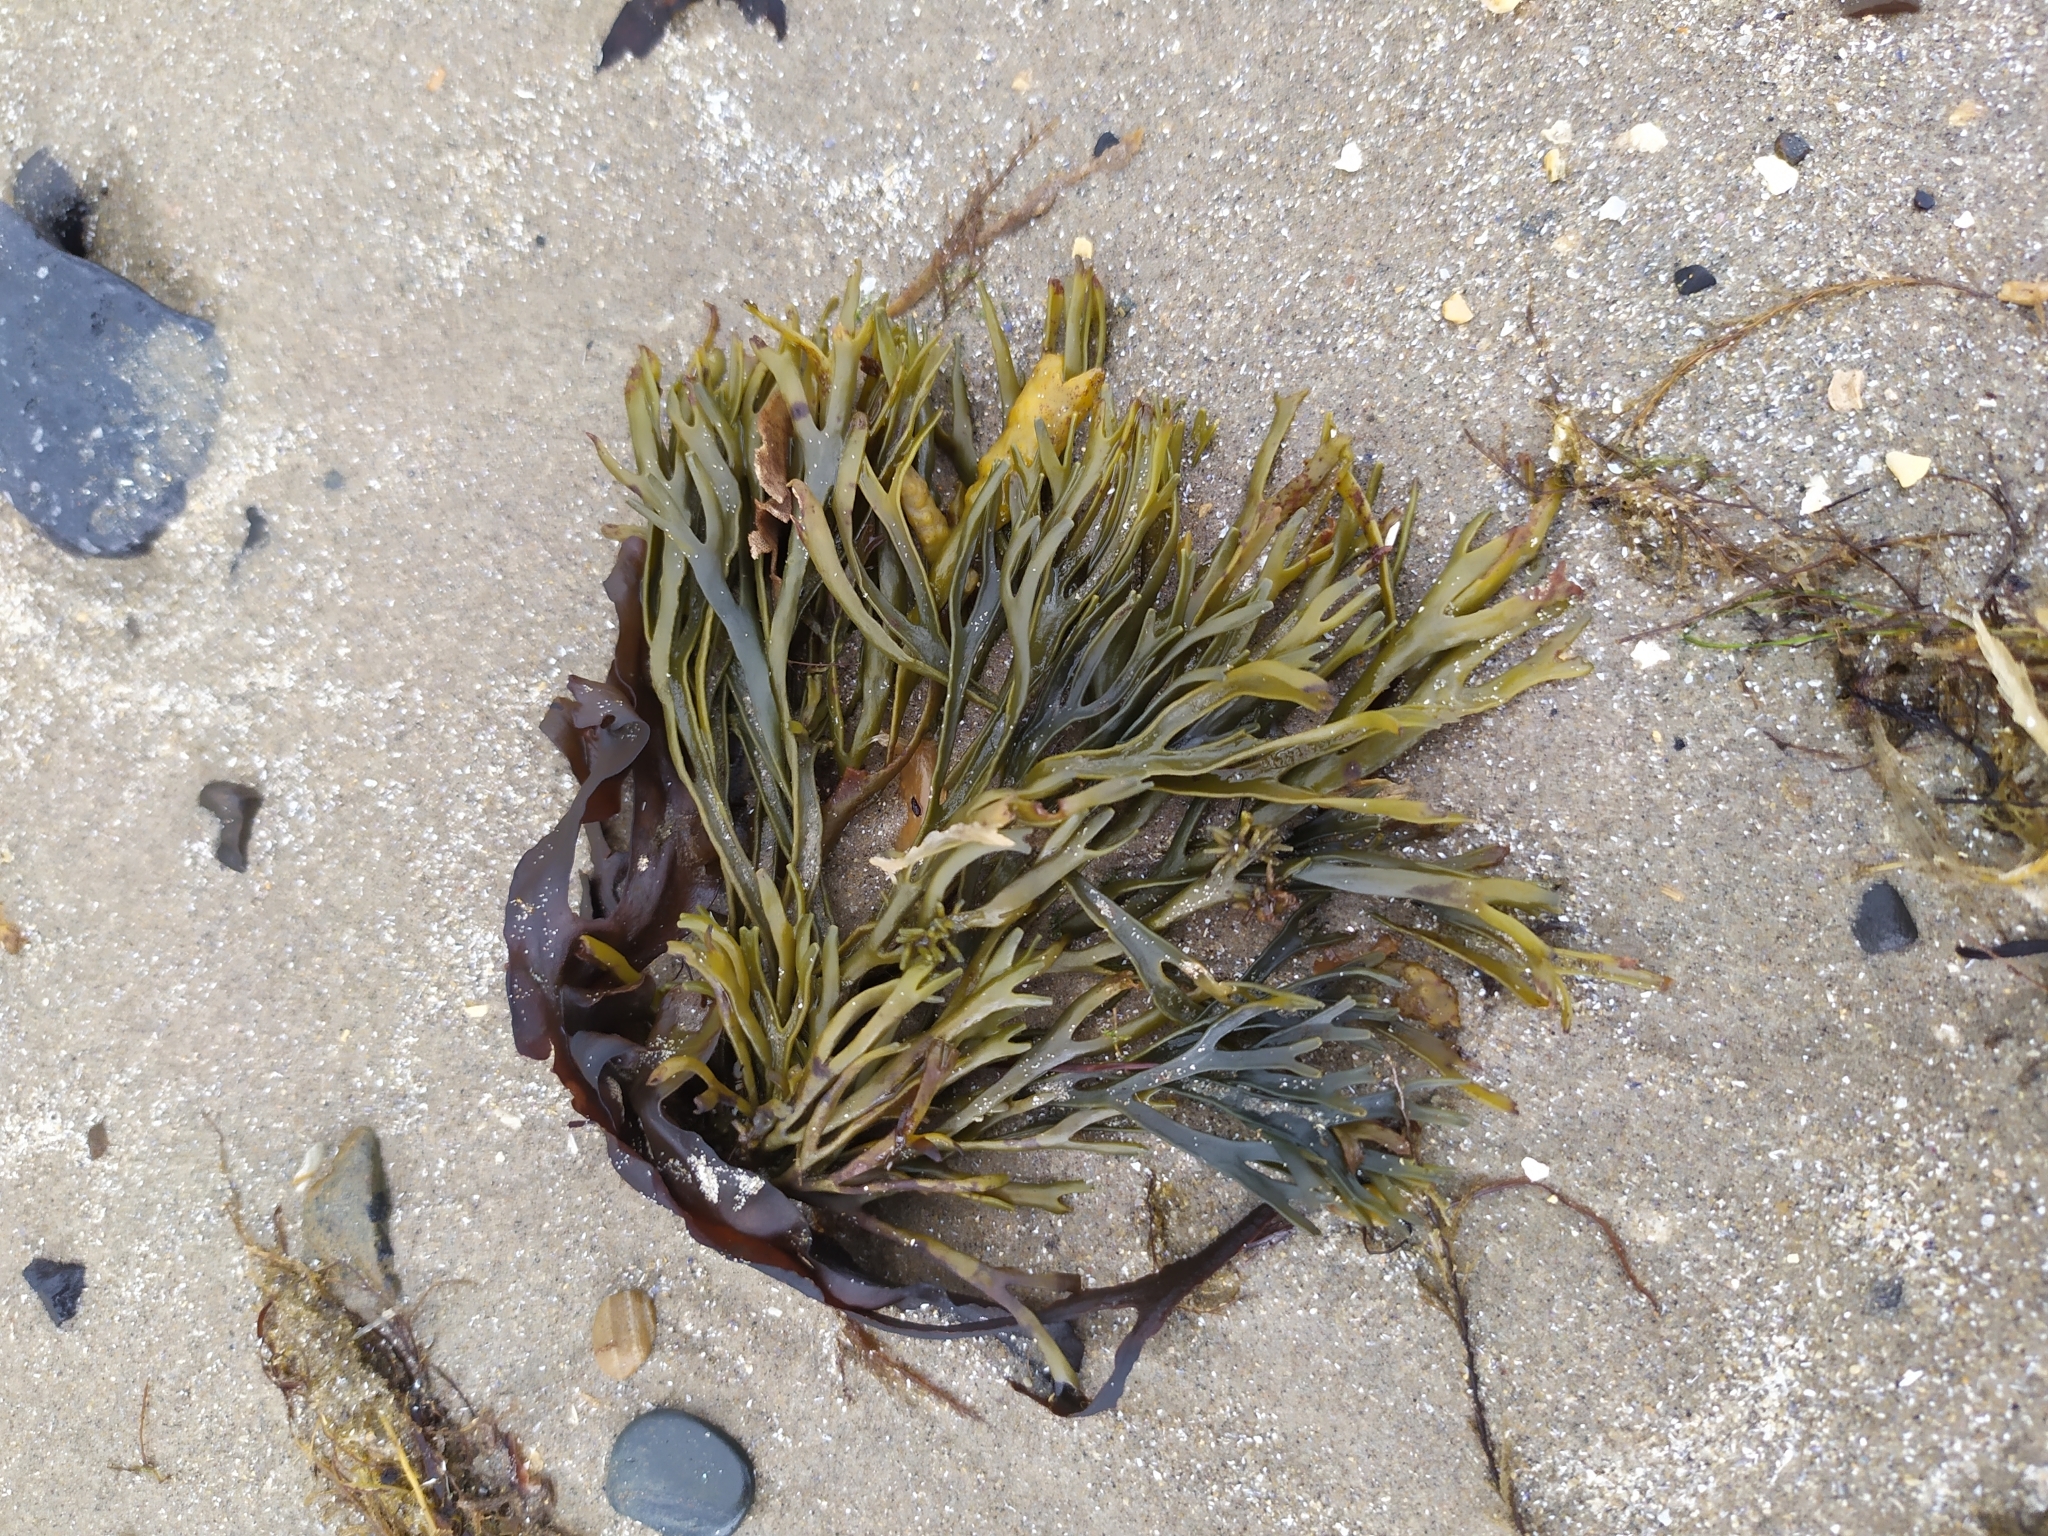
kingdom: Chromista
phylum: Ochrophyta
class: Phaeophyceae
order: Fucales
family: Fucaceae
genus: Pelvetia
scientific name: Pelvetia canaliculata
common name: Channelled wrack
